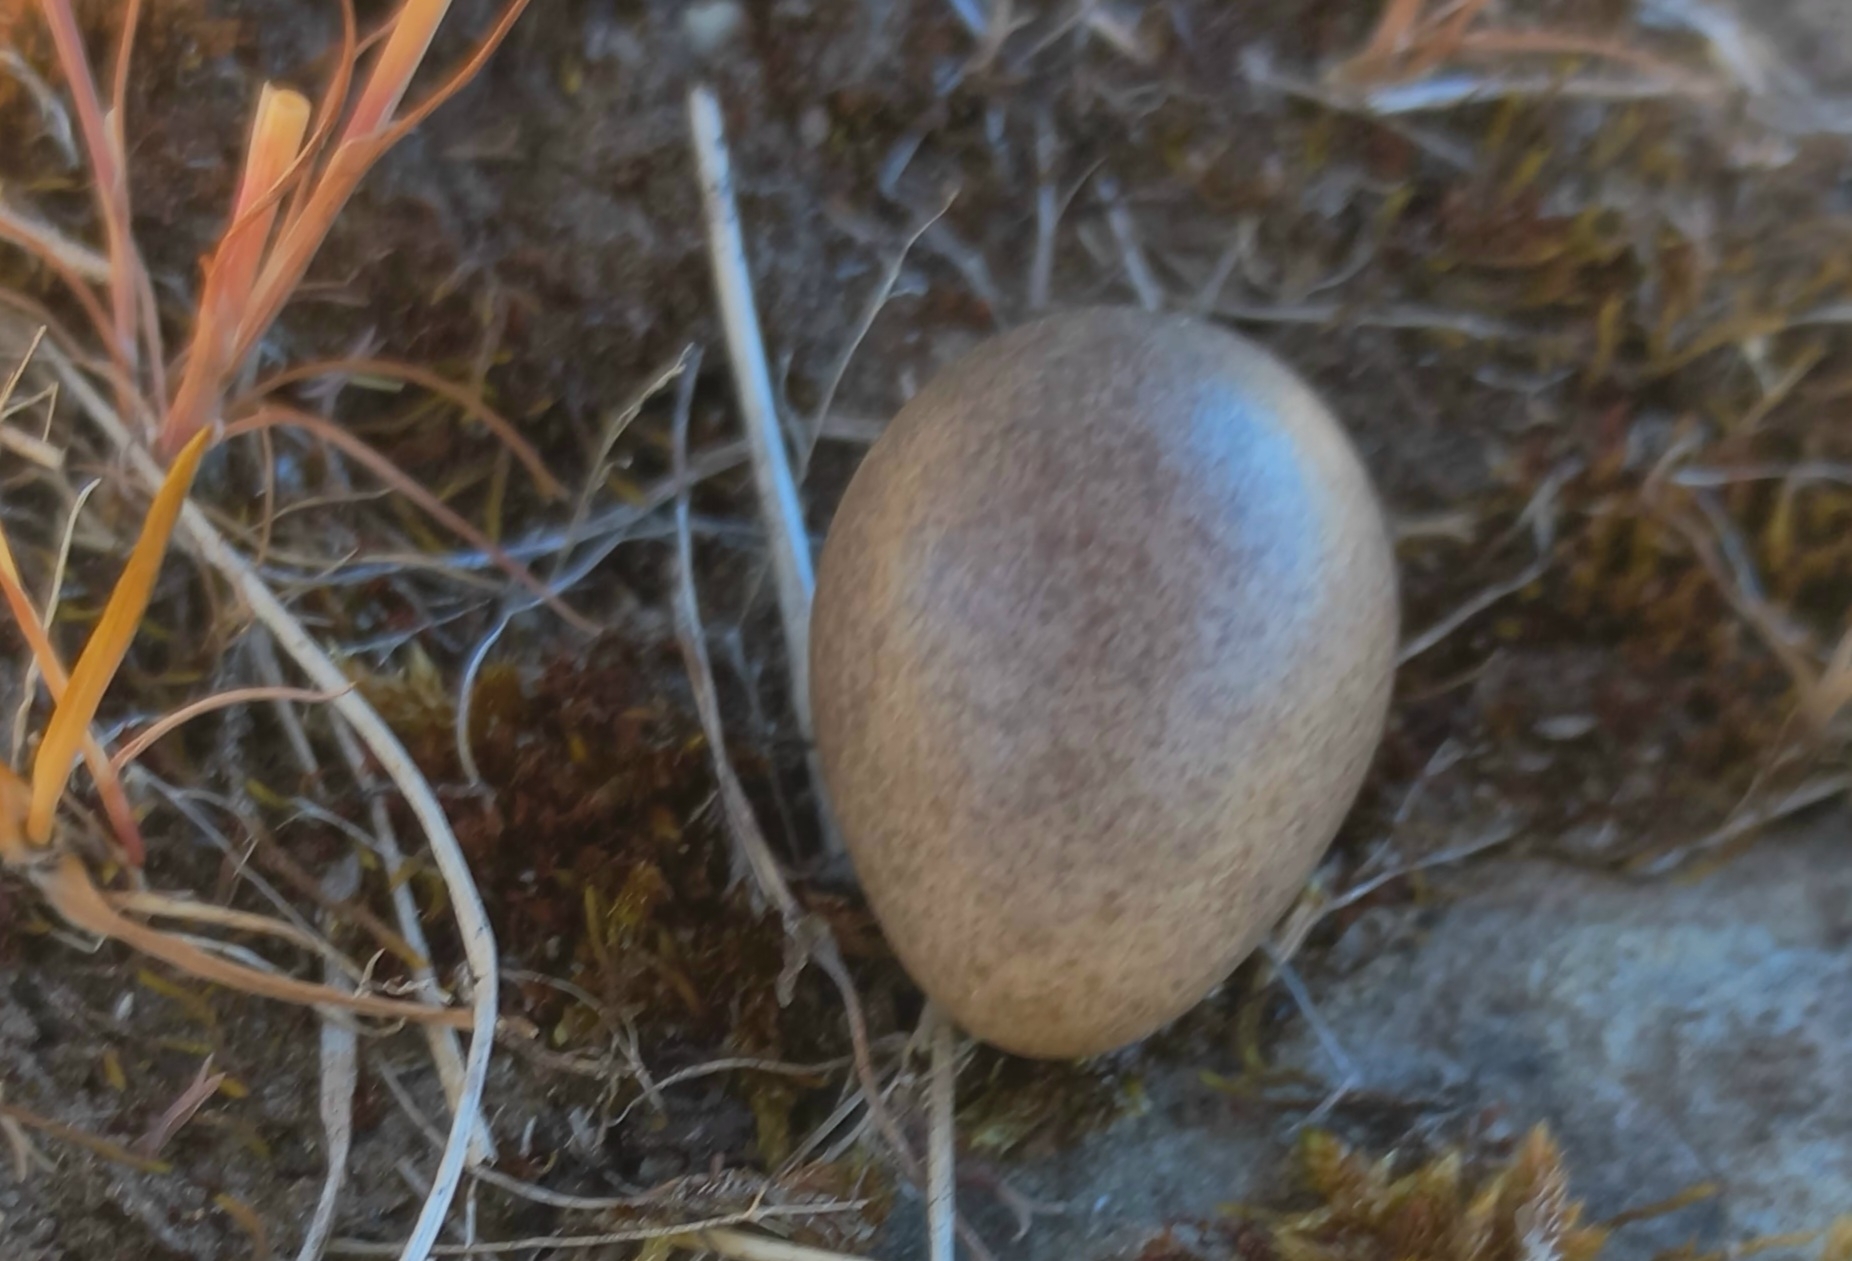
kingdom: Animalia
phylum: Chordata
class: Aves
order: Passeriformes
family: Alaudidae
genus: Alauda
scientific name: Alauda arvensis
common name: Eurasian skylark
